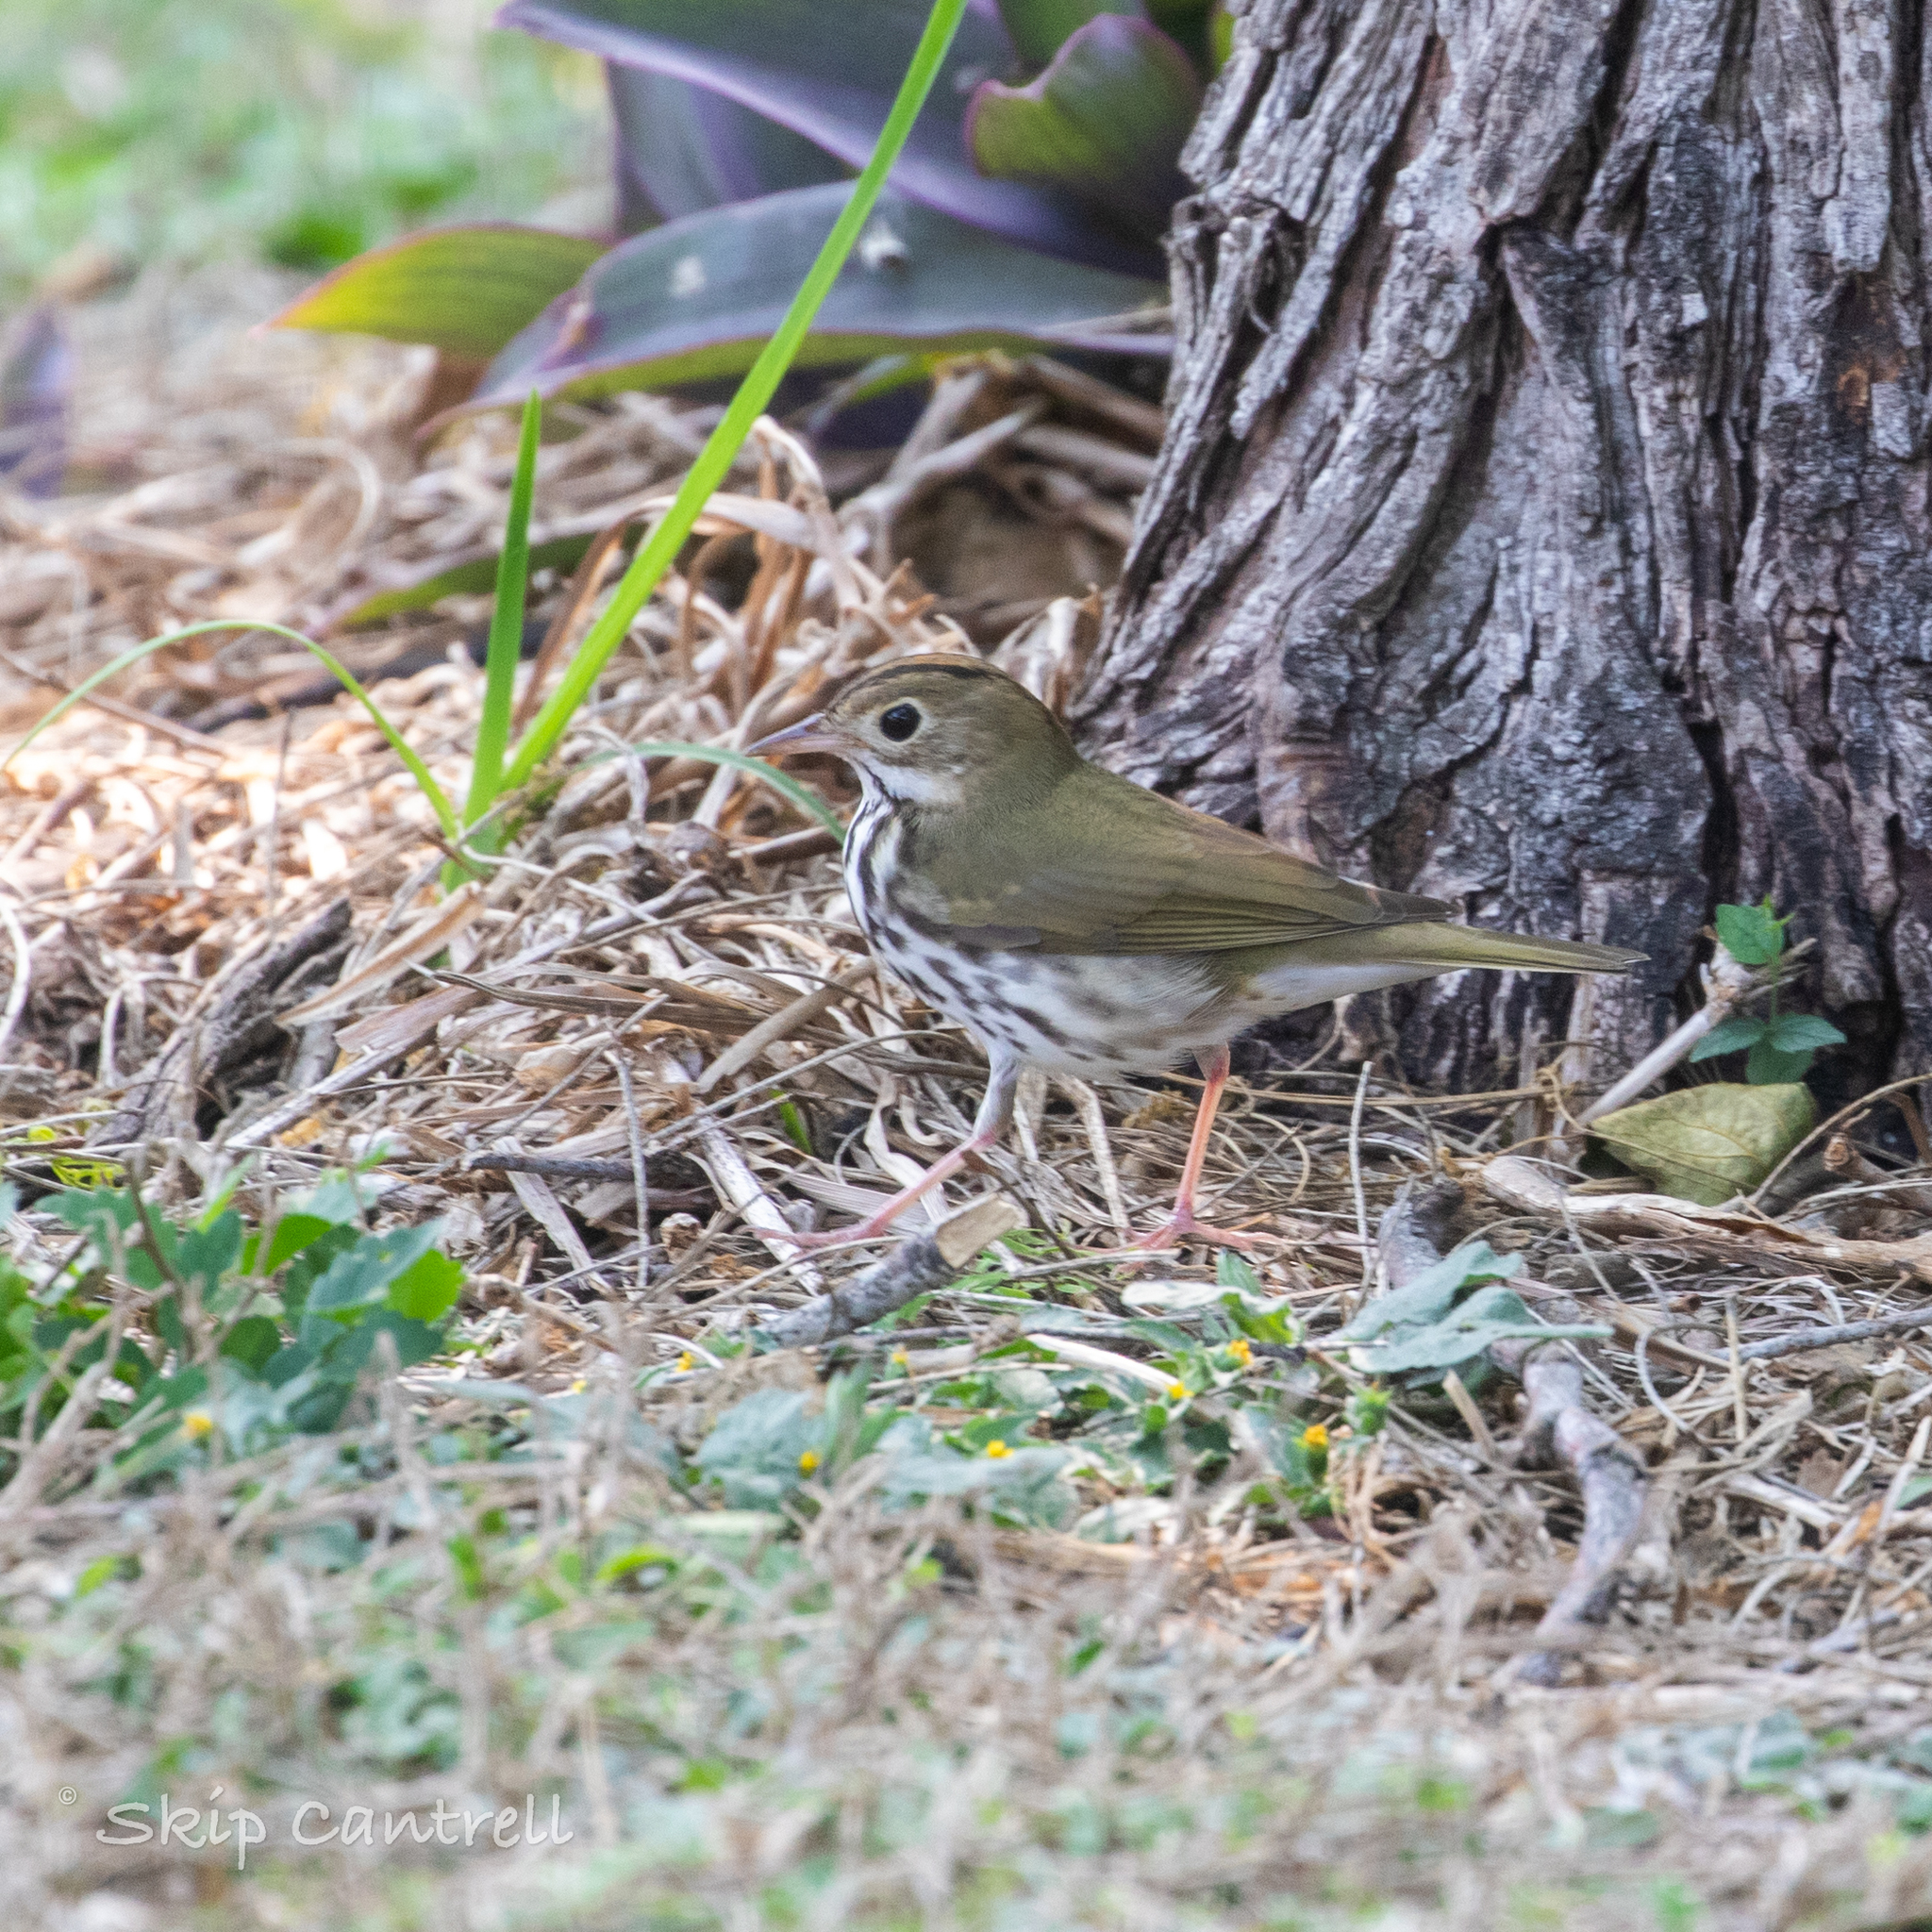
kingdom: Animalia
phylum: Chordata
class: Aves
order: Passeriformes
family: Parulidae
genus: Seiurus
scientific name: Seiurus aurocapilla
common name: Ovenbird
